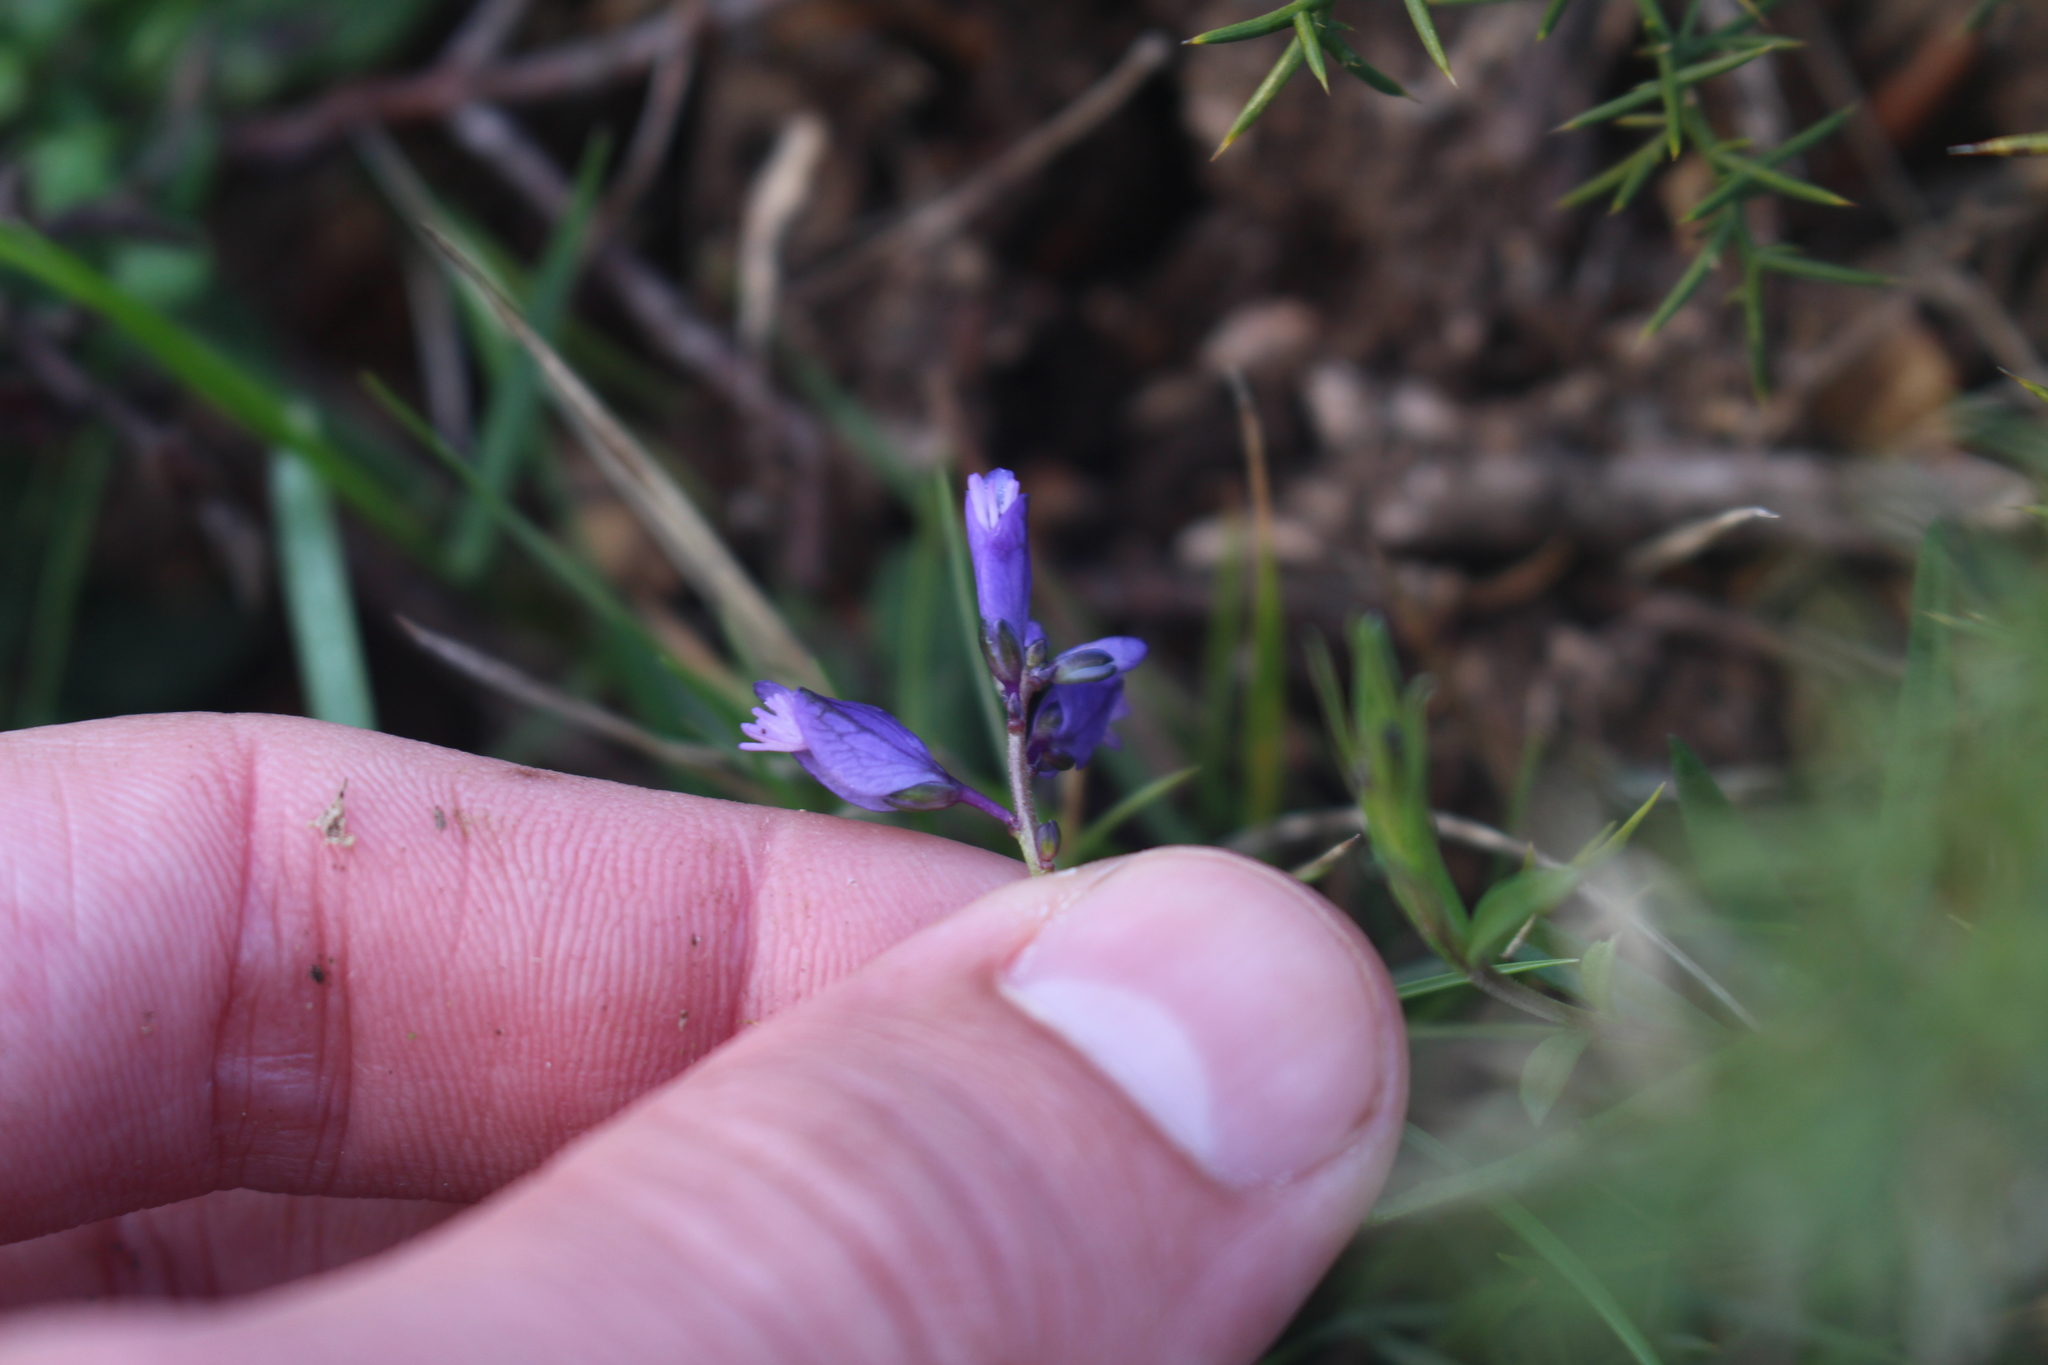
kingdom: Plantae
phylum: Tracheophyta
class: Magnoliopsida
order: Fabales
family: Polygalaceae
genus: Polygala
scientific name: Polygala vulgaris
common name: Common milkwort
